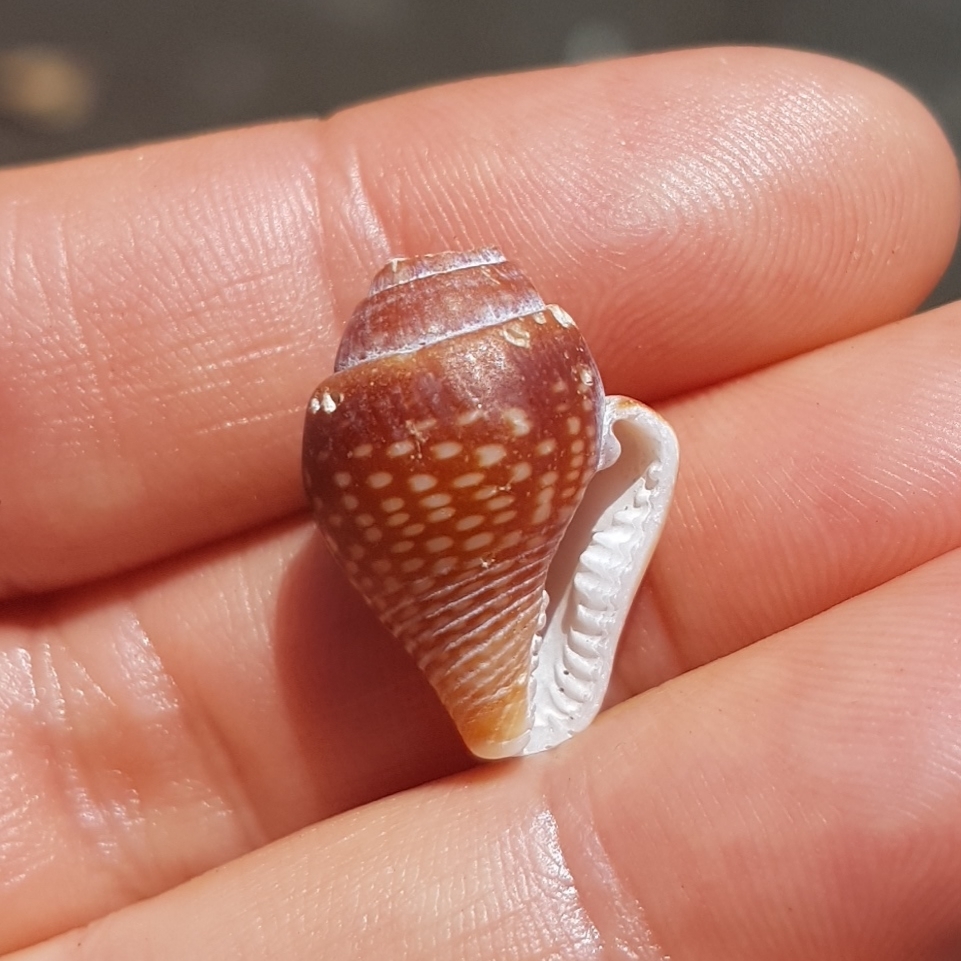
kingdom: Animalia
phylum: Mollusca
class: Gastropoda
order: Neogastropoda
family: Columbellidae
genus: Columbella
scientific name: Columbella major
